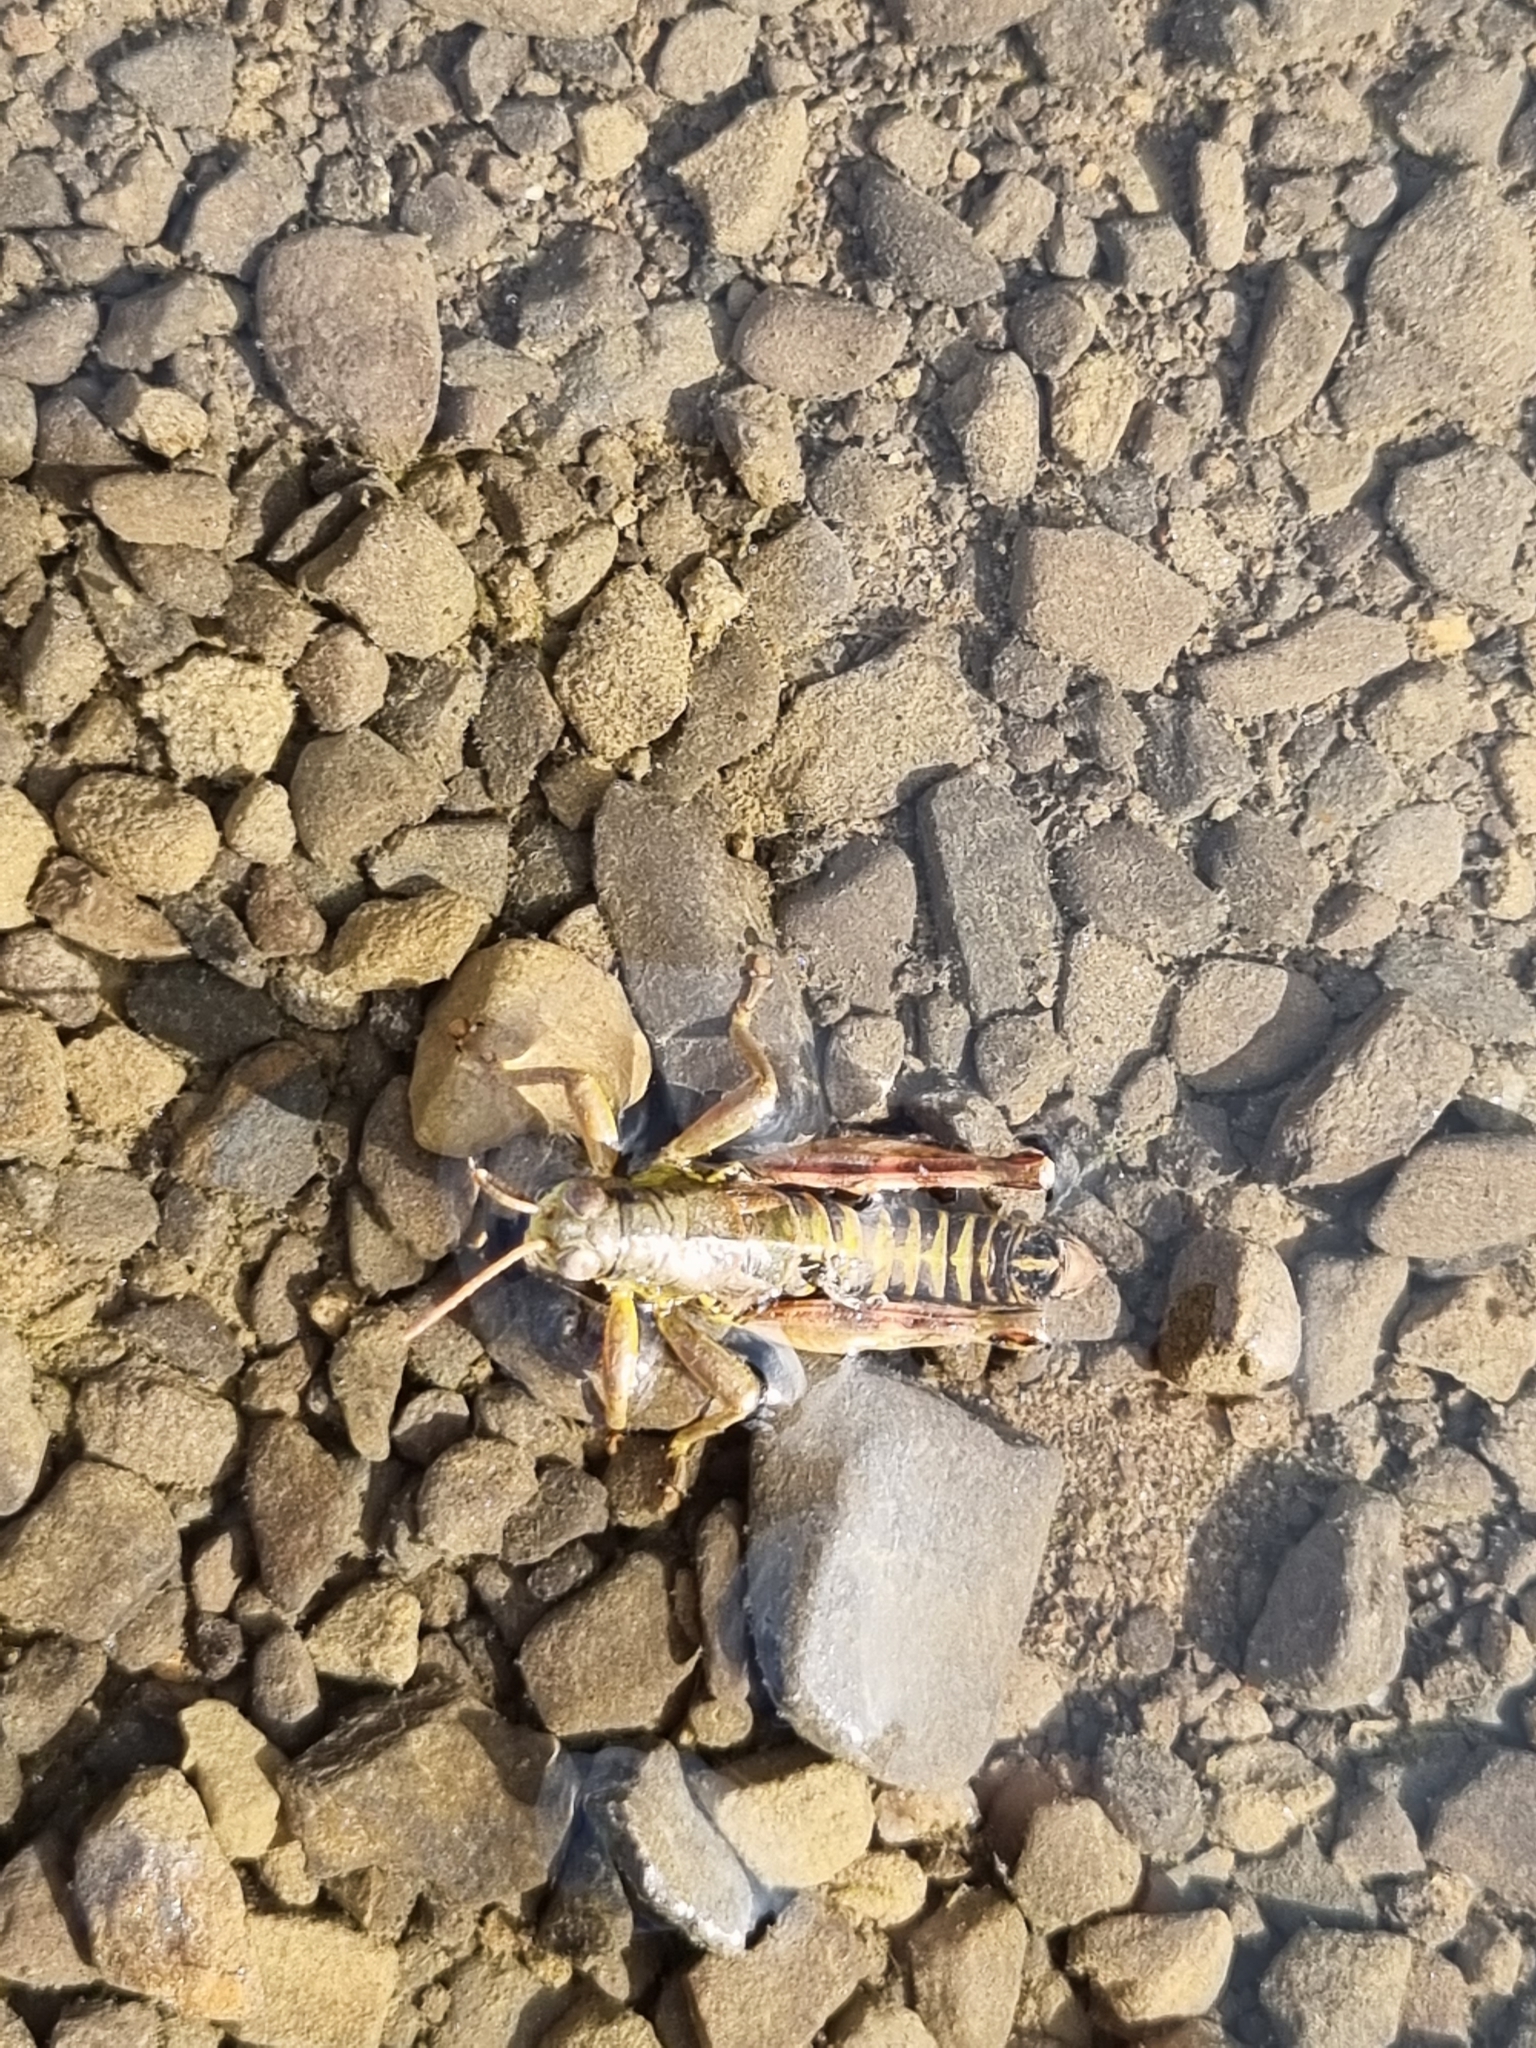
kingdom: Animalia
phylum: Arthropoda
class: Insecta
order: Orthoptera
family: Acrididae
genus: Podisma
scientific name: Podisma emiliae
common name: Emilia mountain grasshopper
